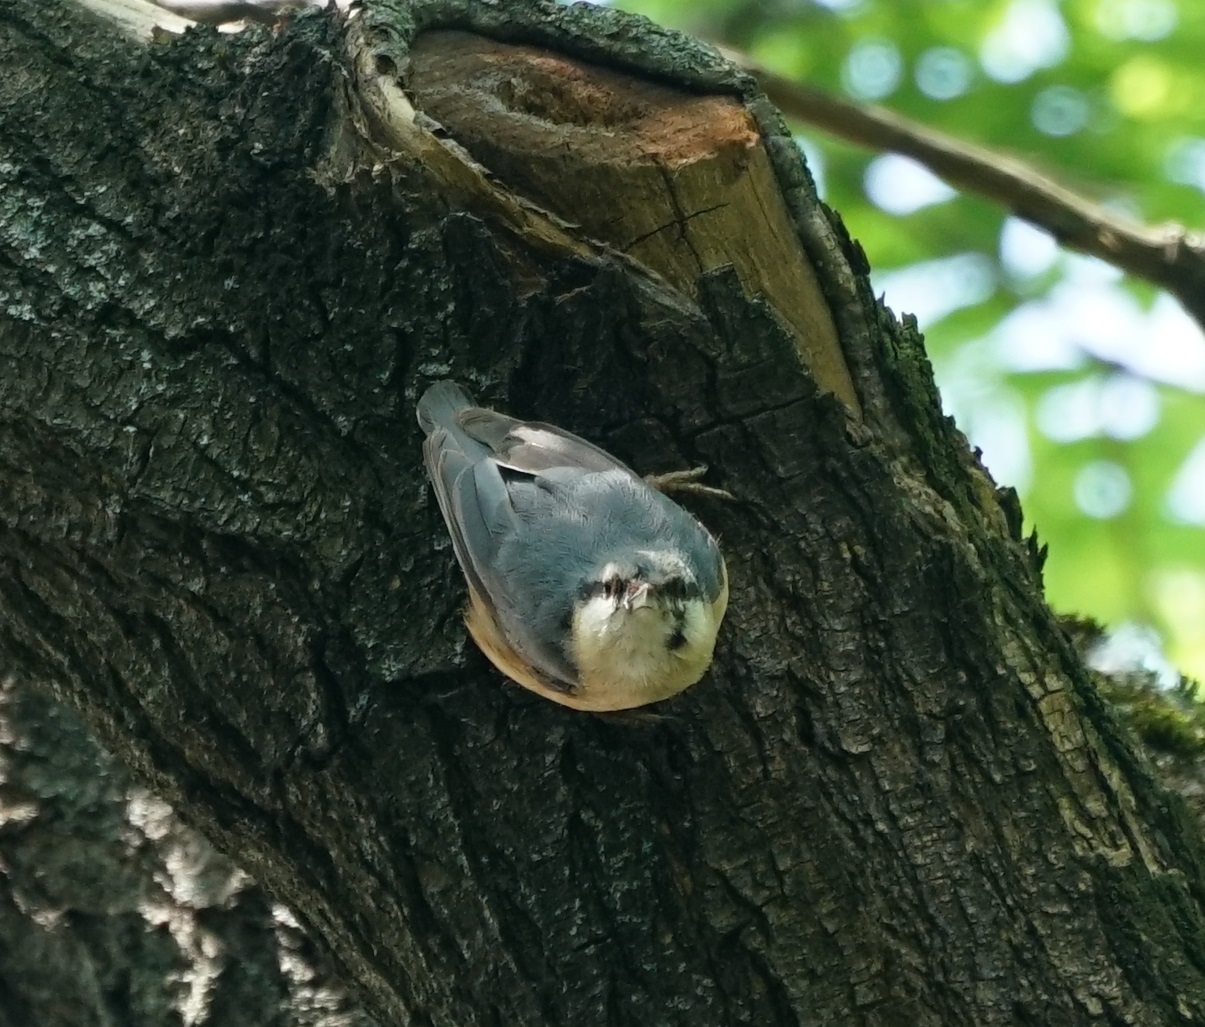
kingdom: Animalia
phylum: Chordata
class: Aves
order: Passeriformes
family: Sittidae
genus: Sitta
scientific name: Sitta europaea
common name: Eurasian nuthatch
